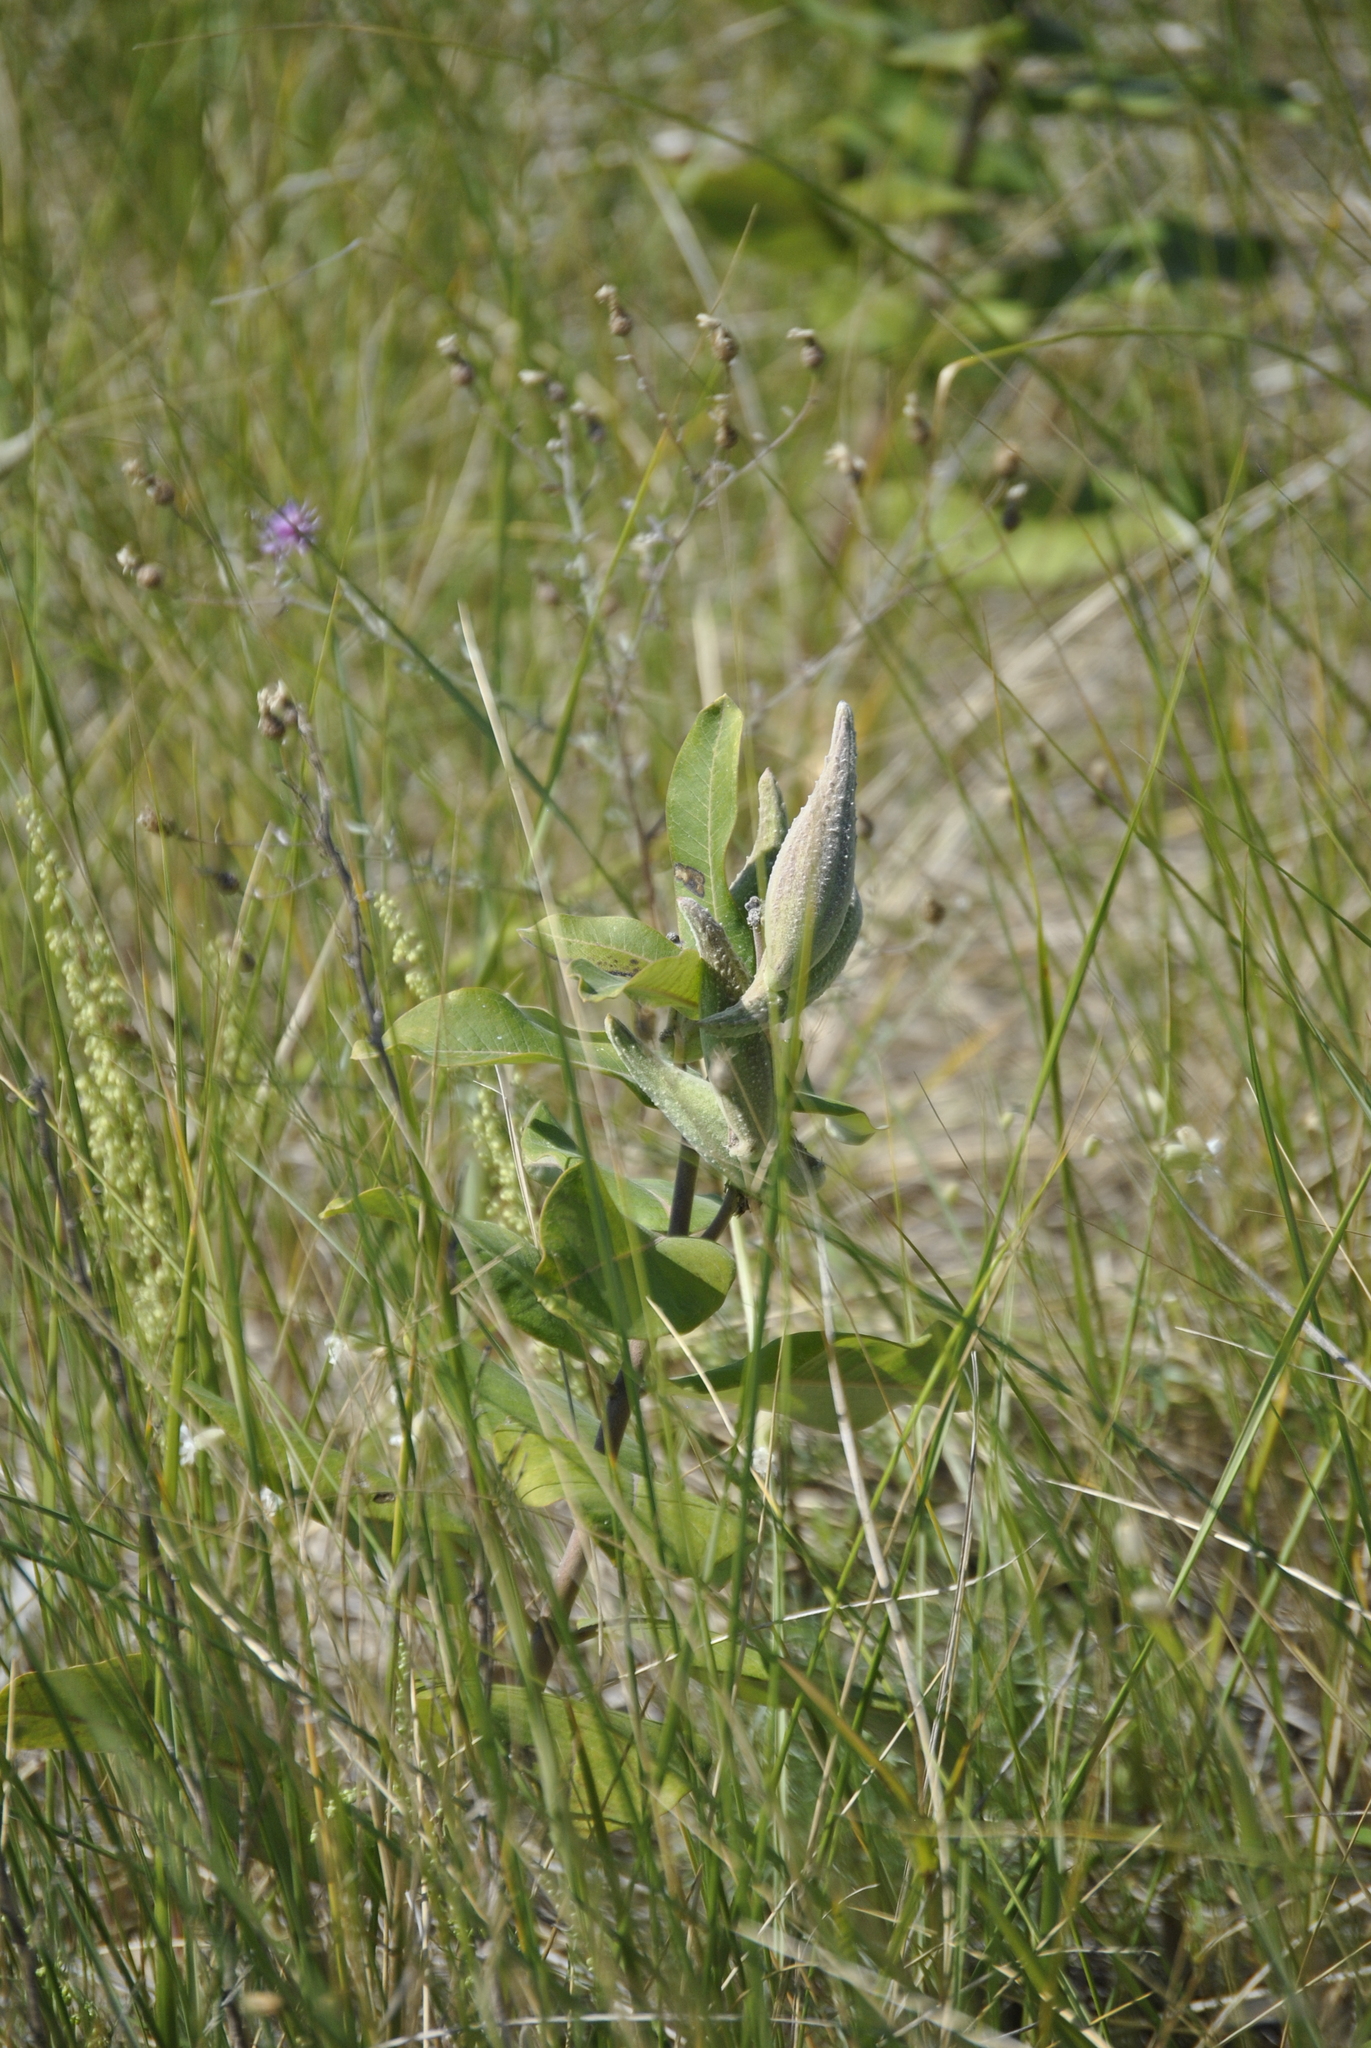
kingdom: Plantae
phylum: Tracheophyta
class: Magnoliopsida
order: Gentianales
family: Apocynaceae
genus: Asclepias
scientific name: Asclepias syriaca
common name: Common milkweed
